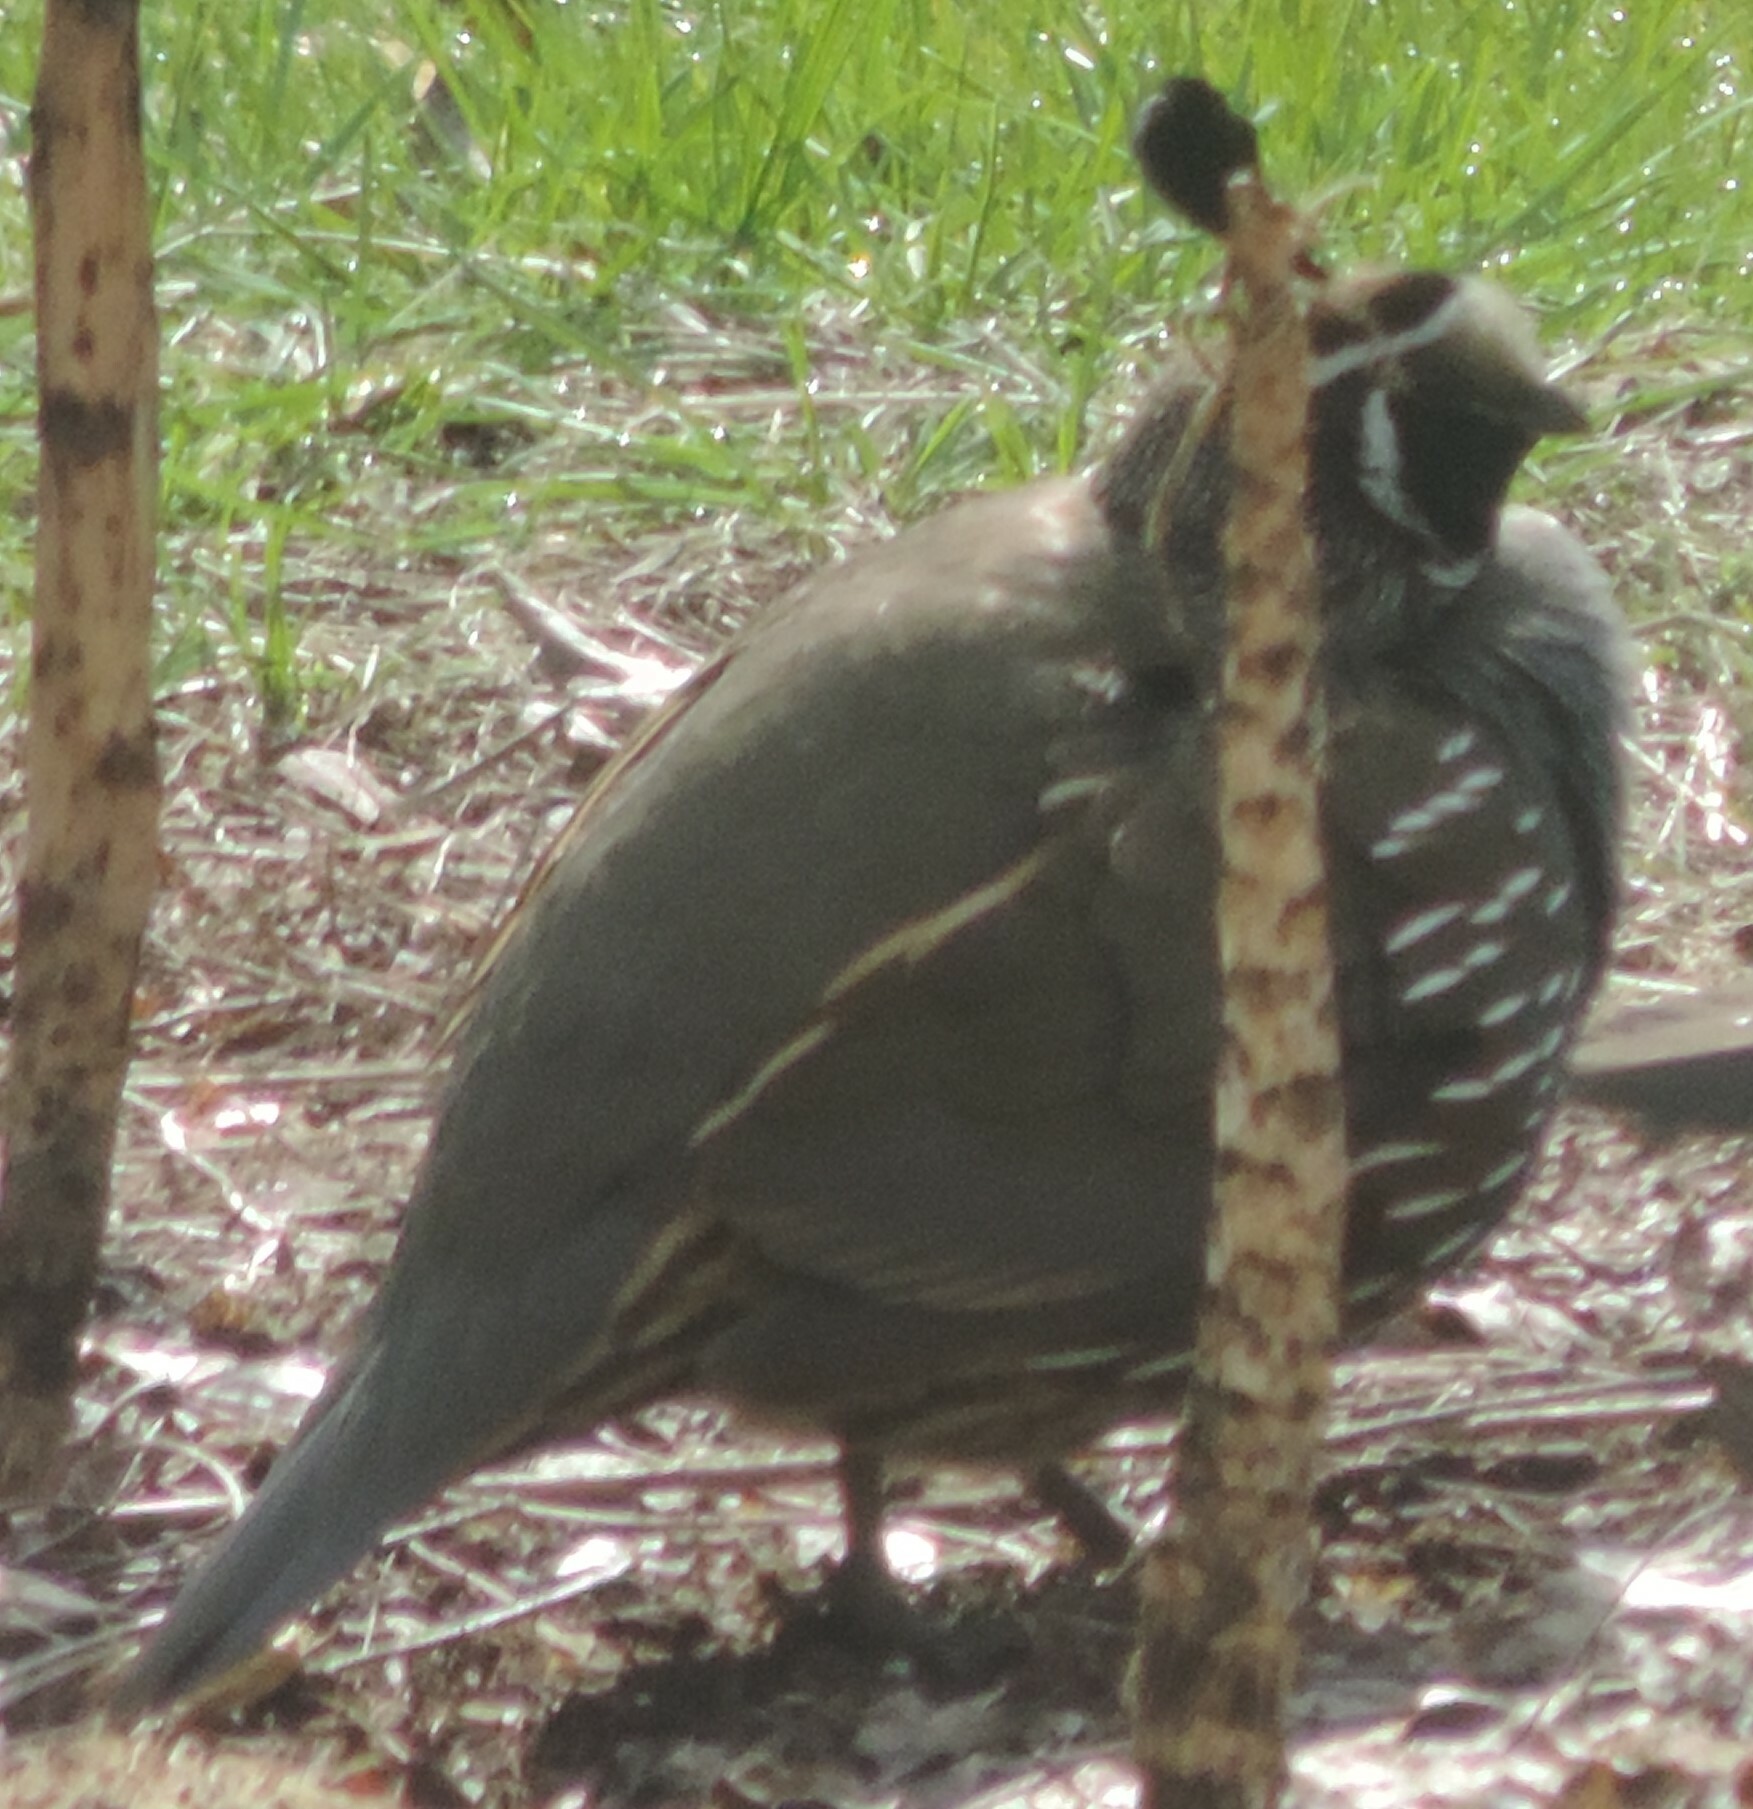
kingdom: Animalia
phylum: Chordata
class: Aves
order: Galliformes
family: Odontophoridae
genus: Callipepla
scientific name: Callipepla californica
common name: California quail
